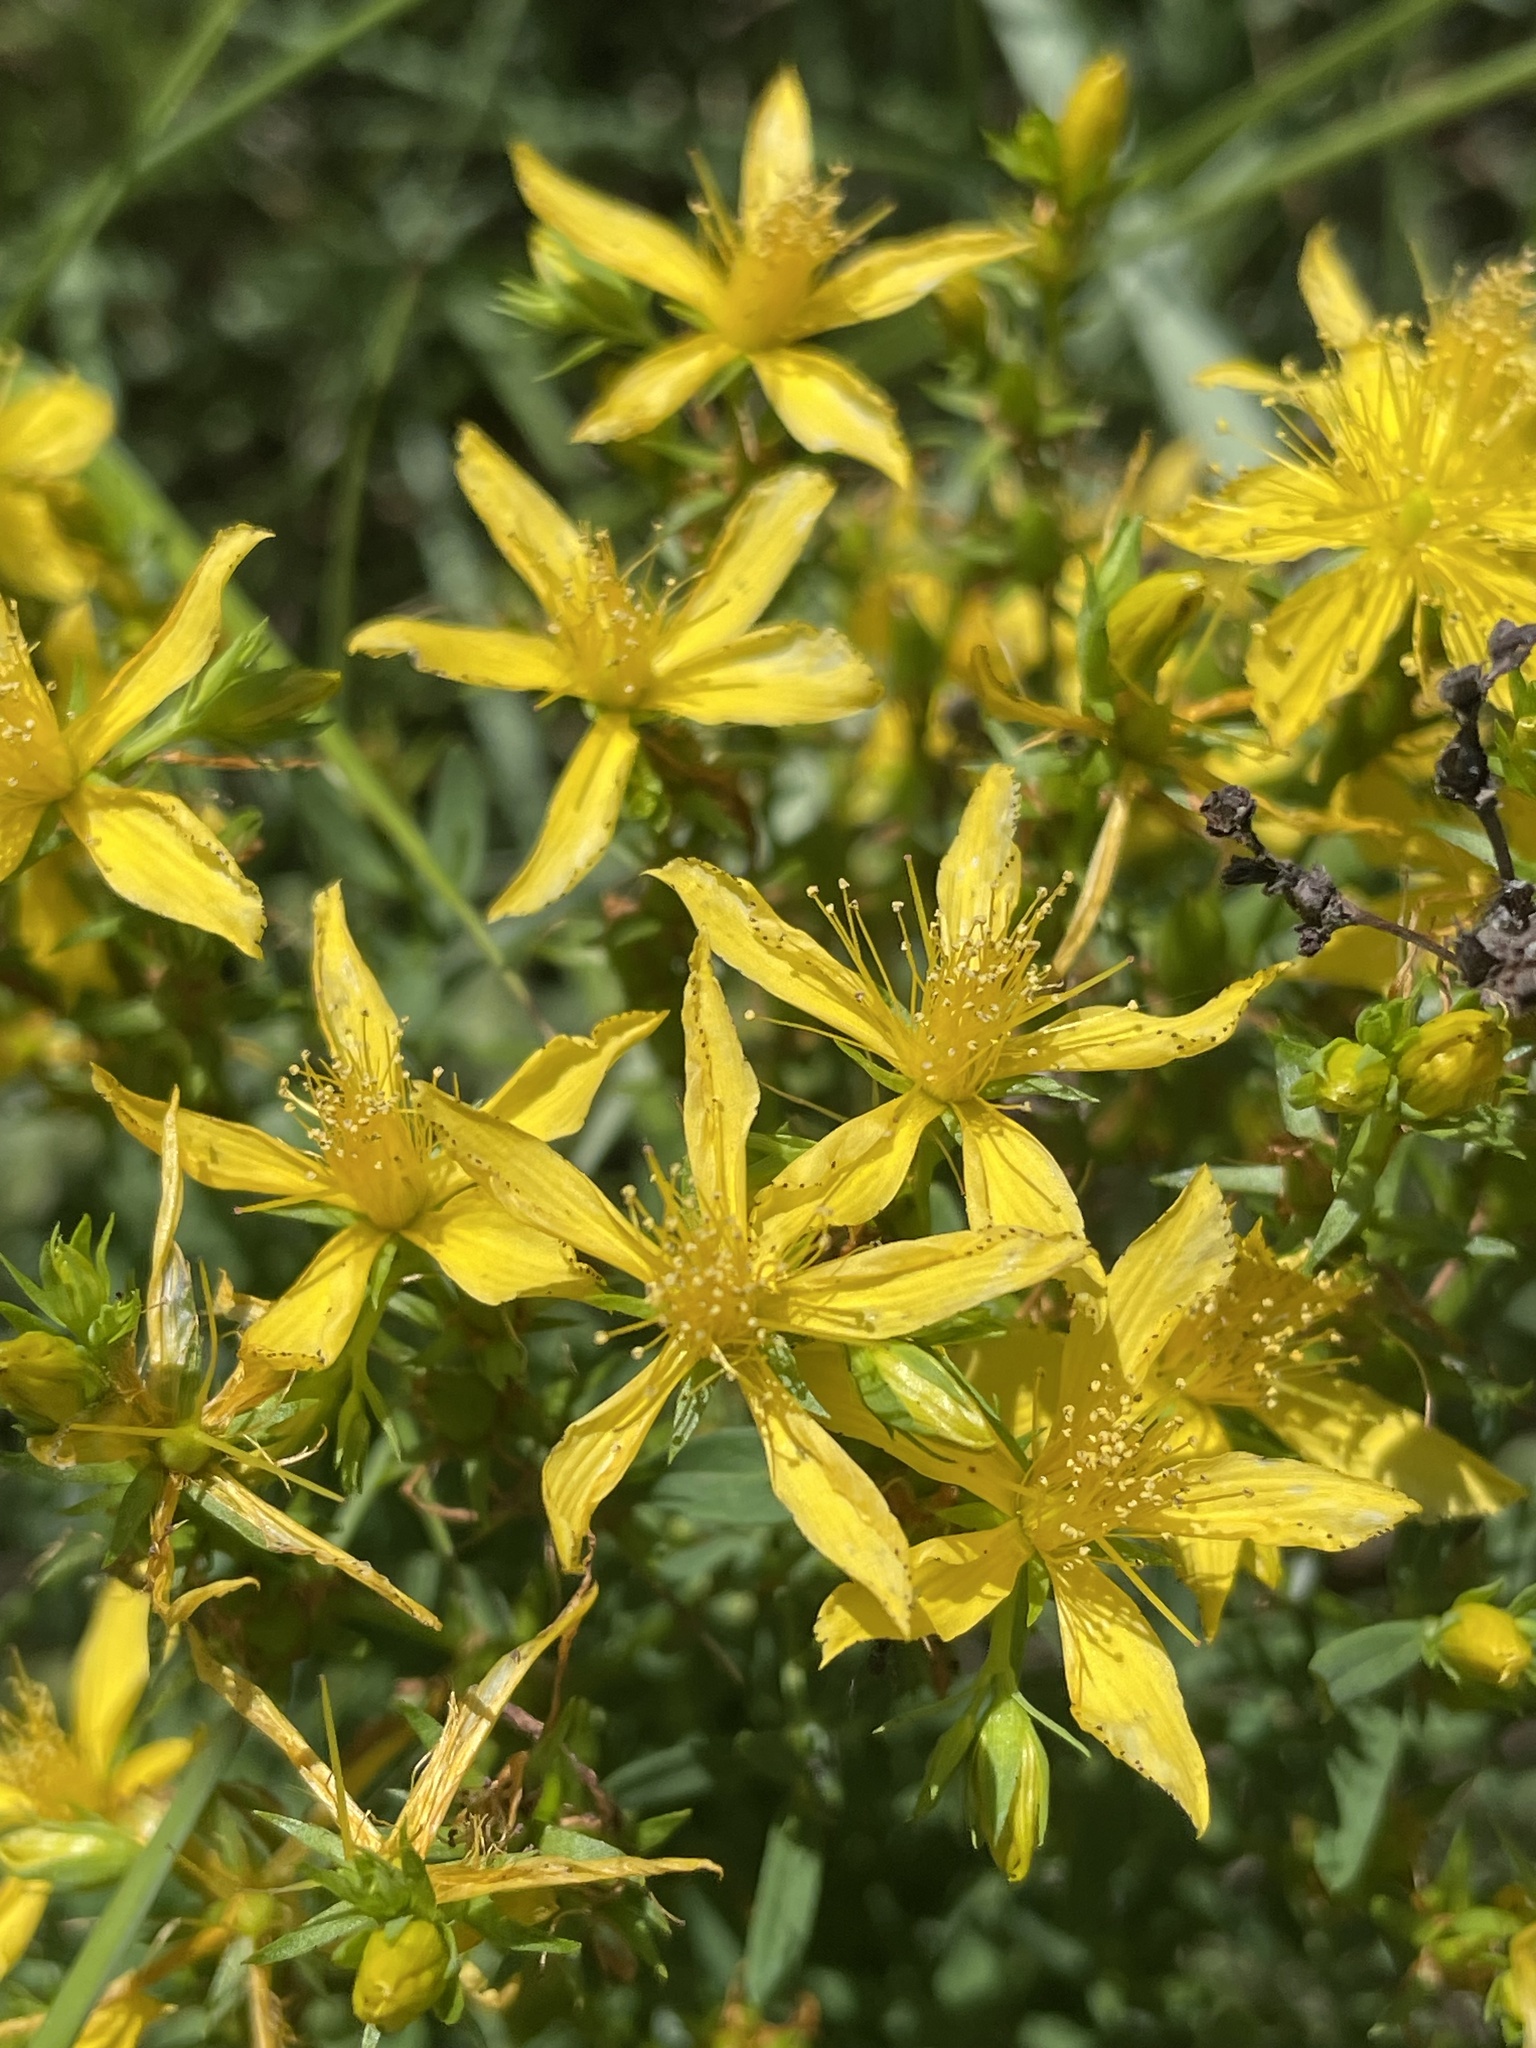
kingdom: Plantae
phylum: Tracheophyta
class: Magnoliopsida
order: Malpighiales
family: Hypericaceae
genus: Hypericum
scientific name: Hypericum perforatum
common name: Common st. johnswort
